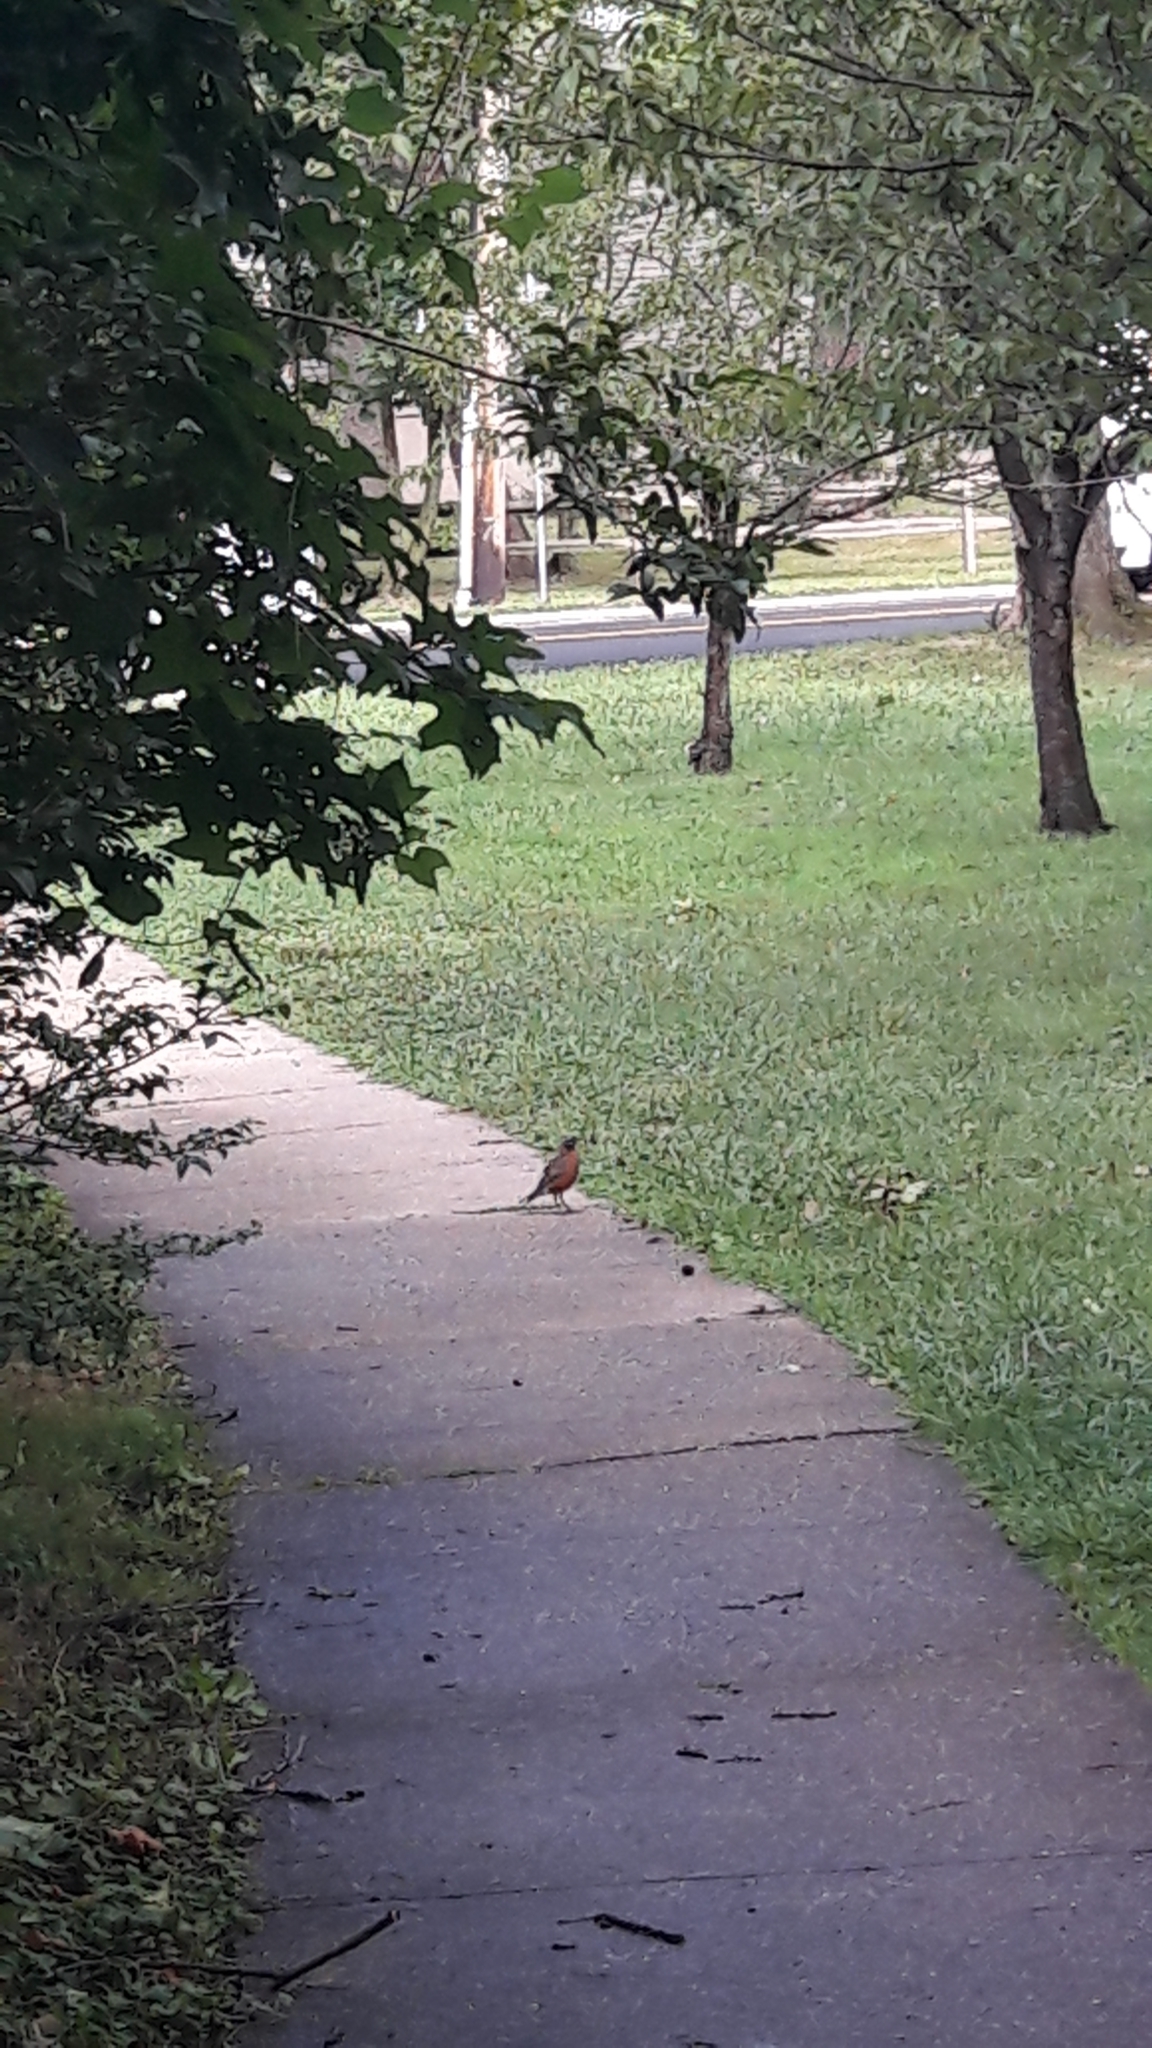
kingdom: Animalia
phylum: Chordata
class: Aves
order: Passeriformes
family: Turdidae
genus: Turdus
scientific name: Turdus migratorius
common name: American robin
